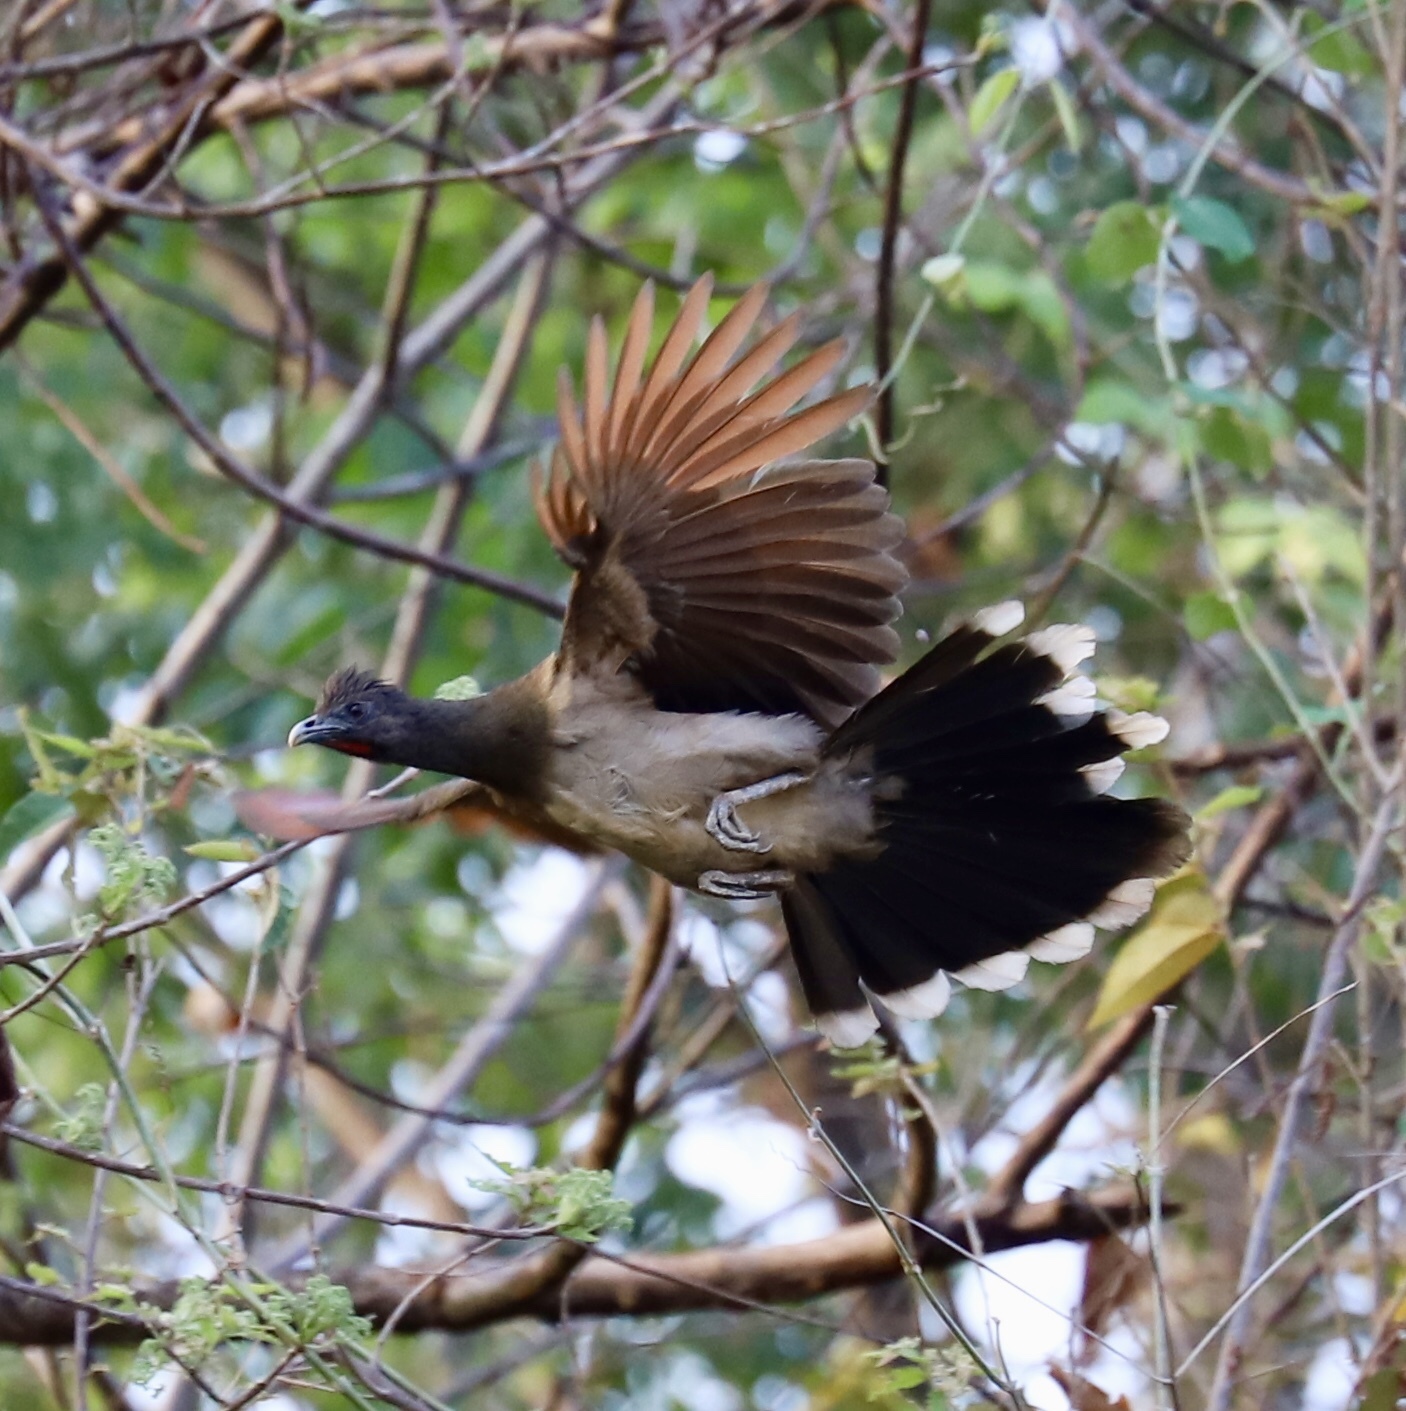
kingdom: Animalia
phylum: Chordata
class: Aves
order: Galliformes
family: Cracidae
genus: Ortalis
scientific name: Ortalis cinereiceps
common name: Grey-headed chachalaca
